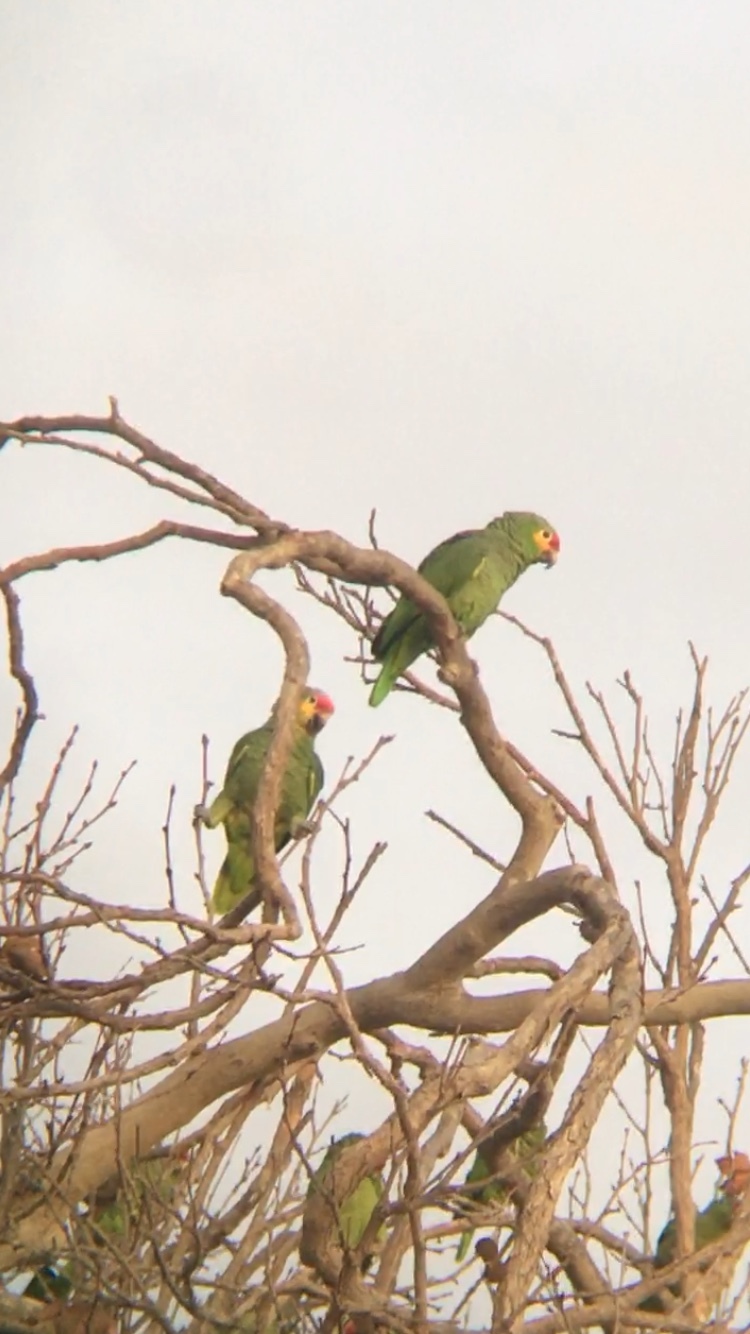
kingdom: Animalia
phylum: Chordata
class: Aves
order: Psittaciformes
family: Psittacidae
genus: Amazona
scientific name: Amazona autumnalis
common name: Red-lored amazon
